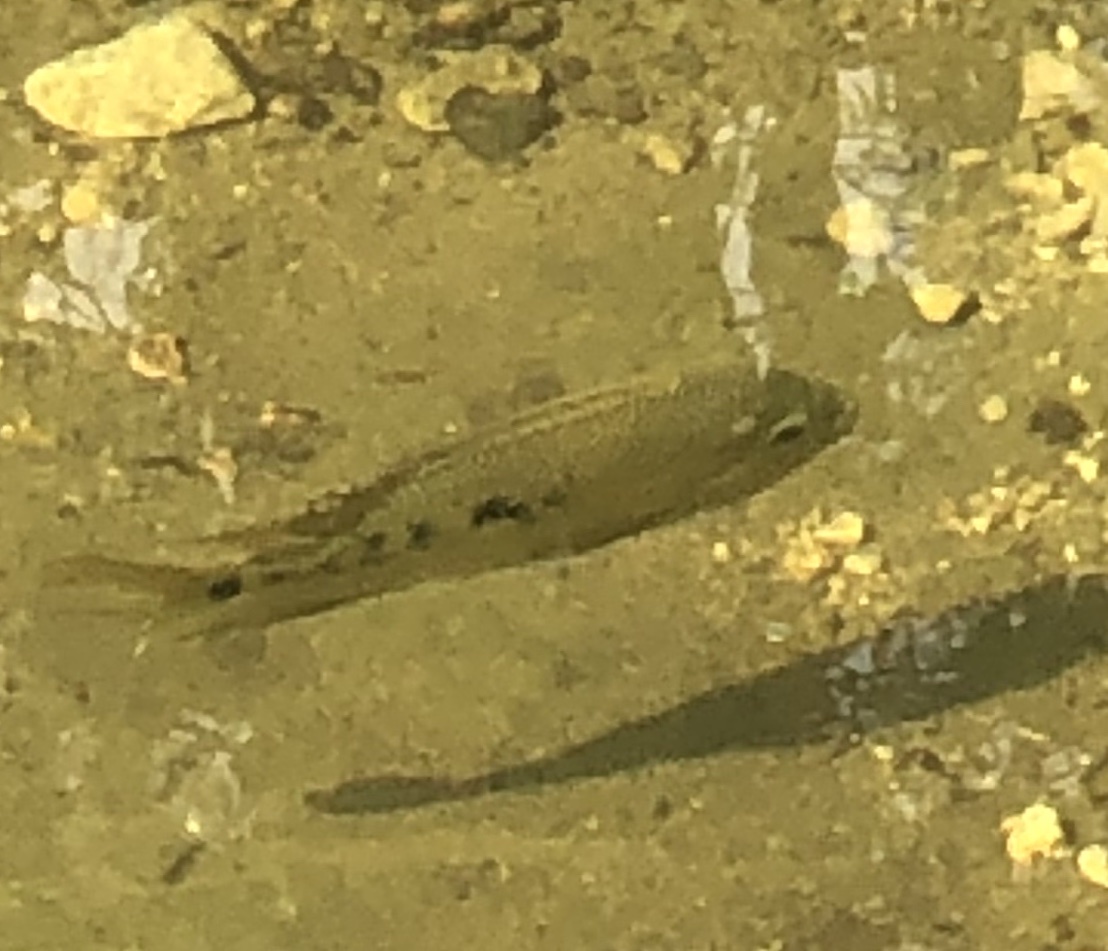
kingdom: Animalia
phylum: Chordata
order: Perciformes
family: Cichlidae
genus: Herichthys
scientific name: Herichthys cyanoguttatus
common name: Rio grande cichlid
